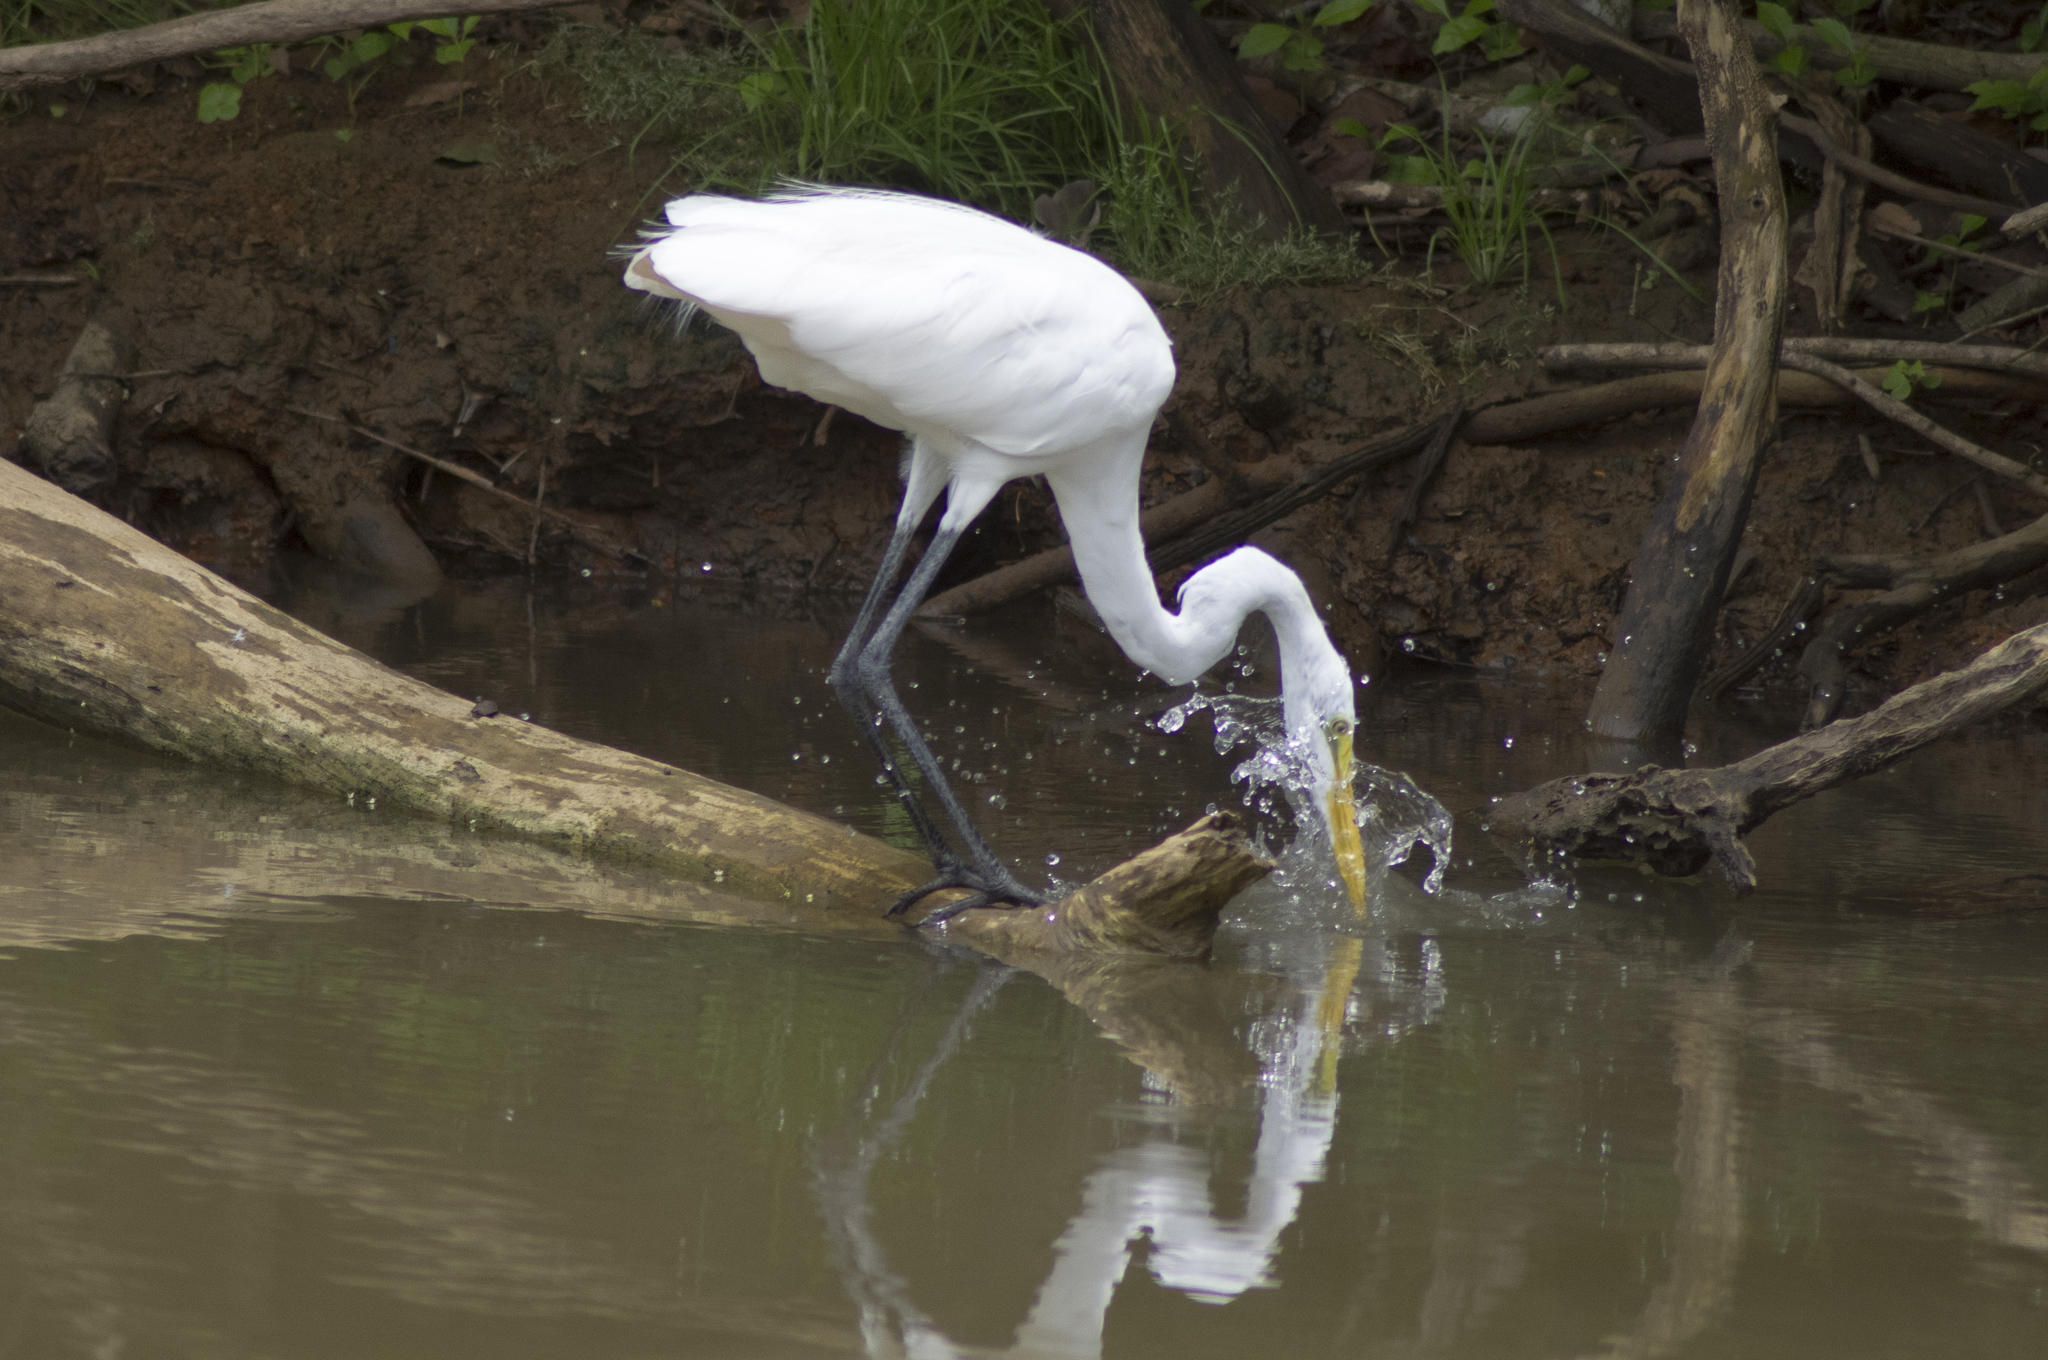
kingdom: Animalia
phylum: Chordata
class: Aves
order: Pelecaniformes
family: Ardeidae
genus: Ardea
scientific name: Ardea alba
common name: Great egret
